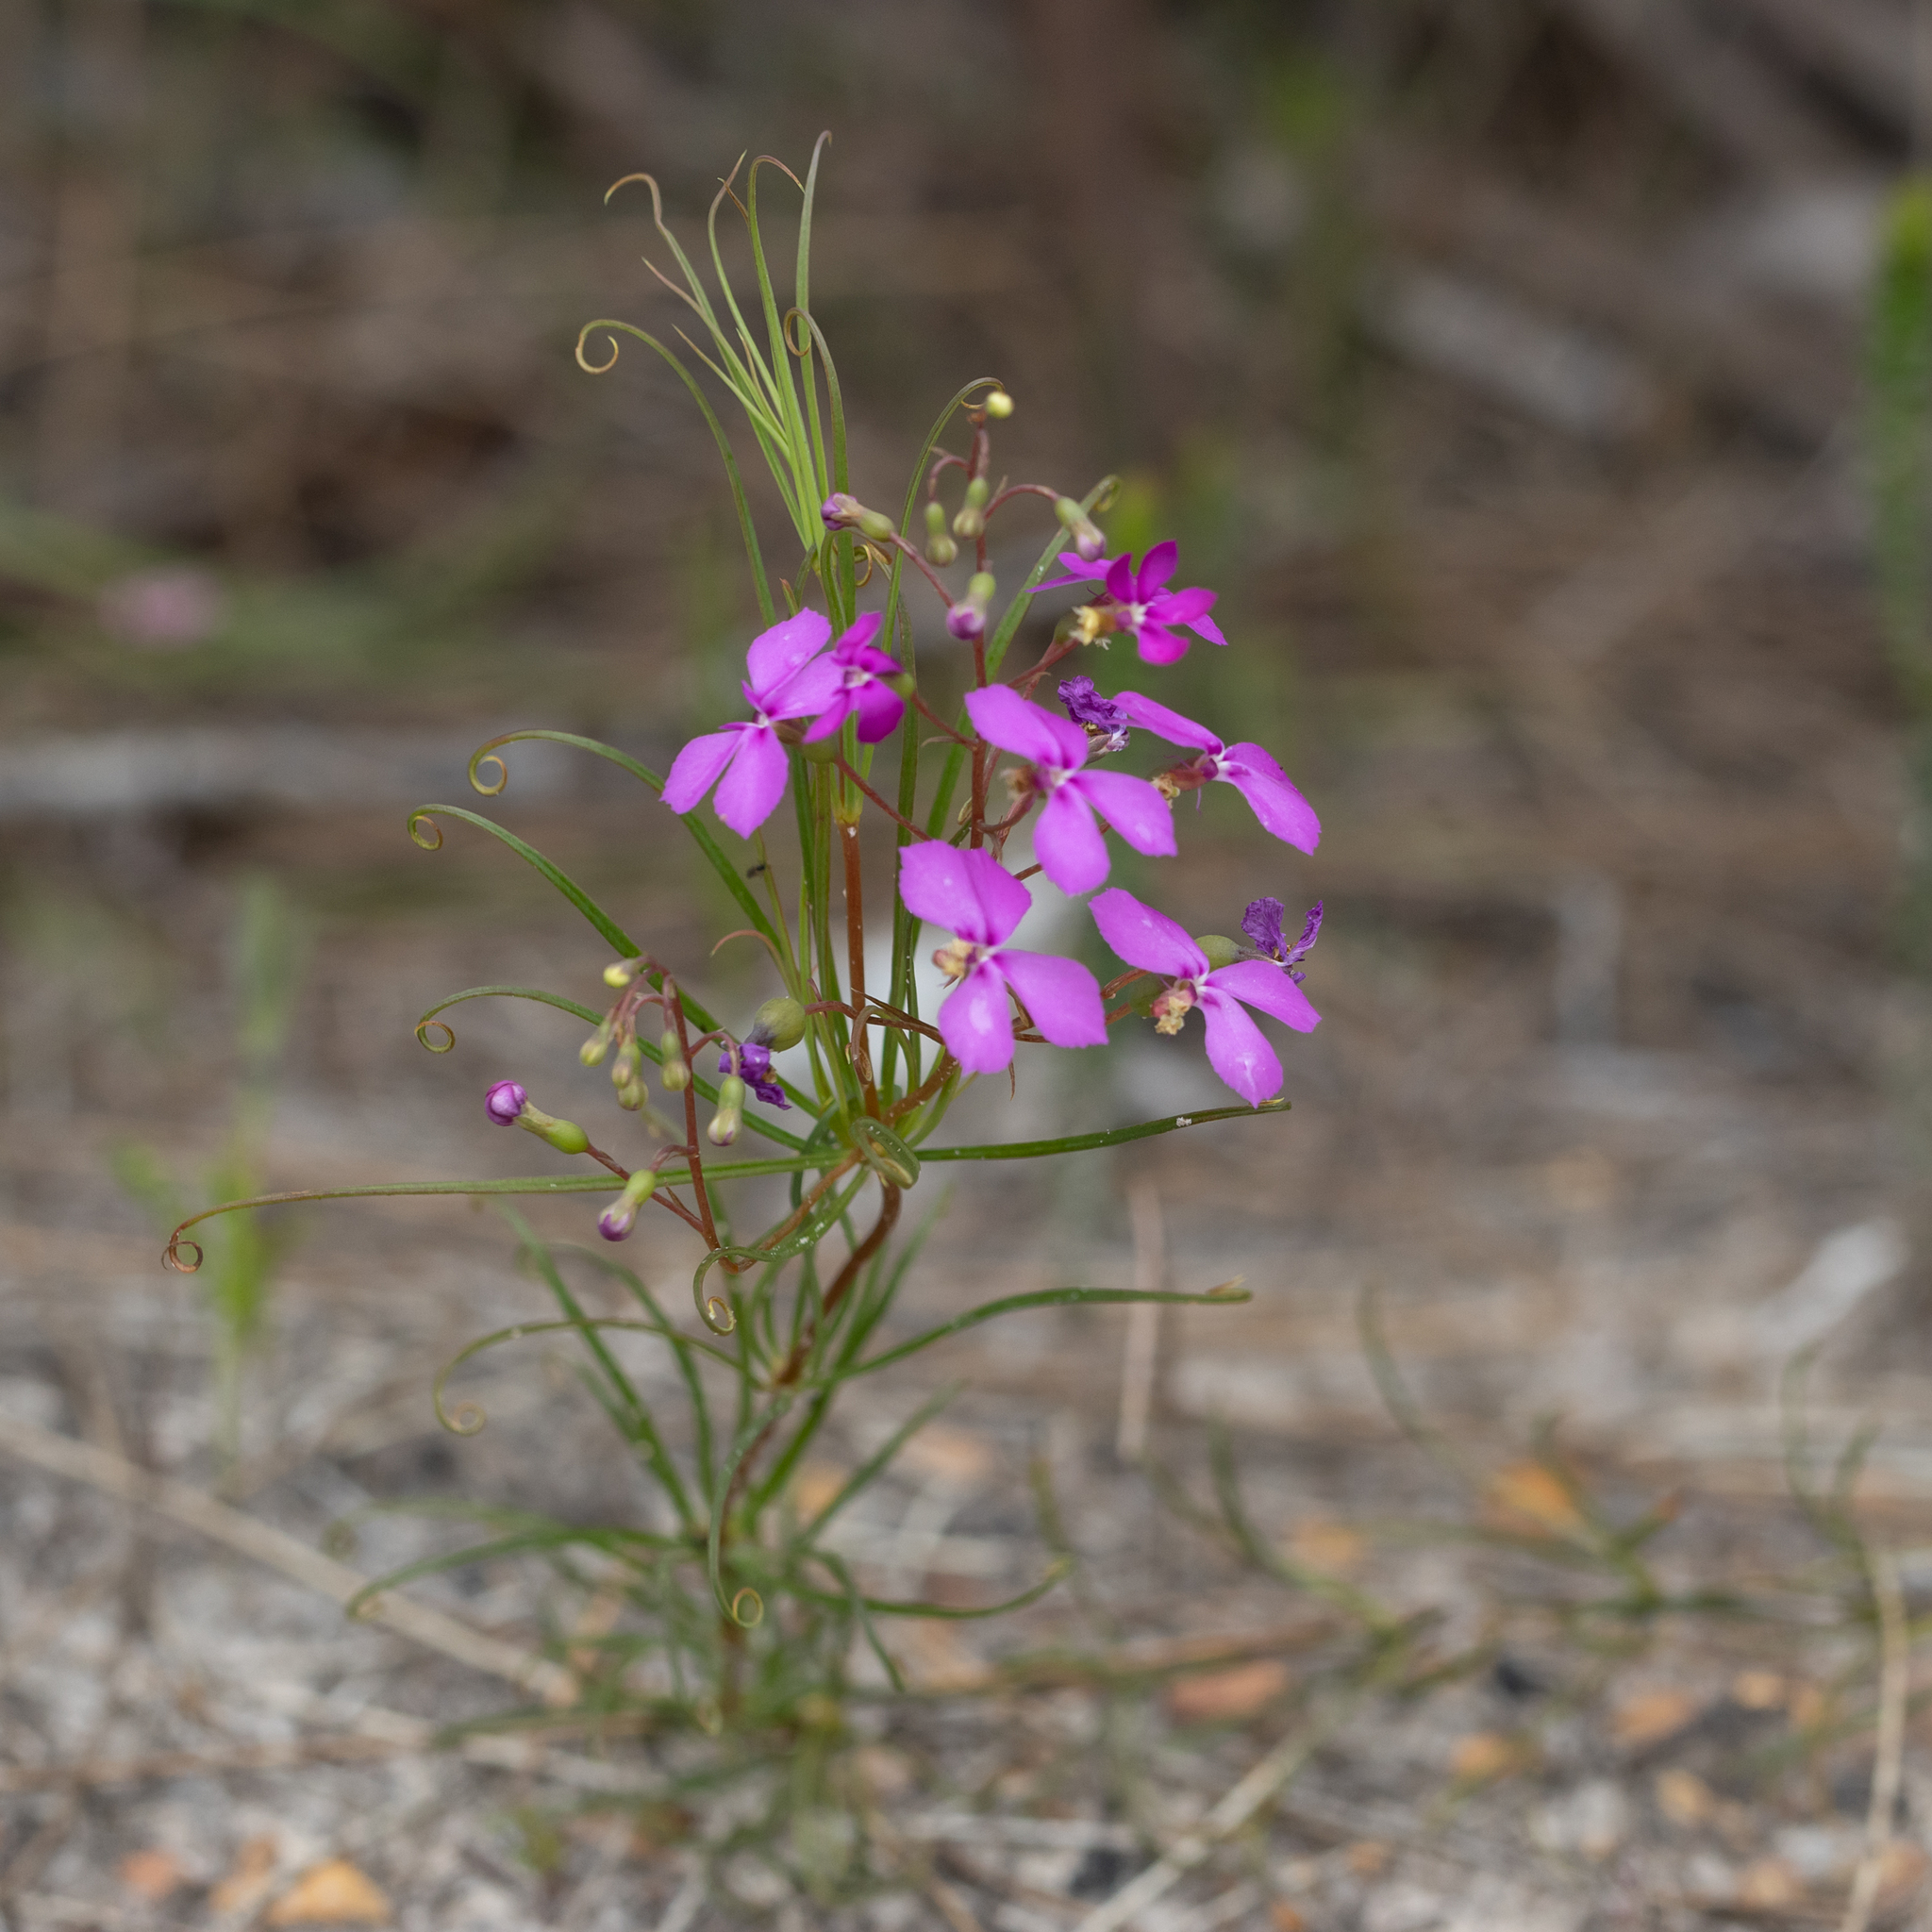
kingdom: Plantae
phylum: Tracheophyta
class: Magnoliopsida
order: Asterales
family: Stylidiaceae
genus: Stylidium
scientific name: Stylidium scandens
